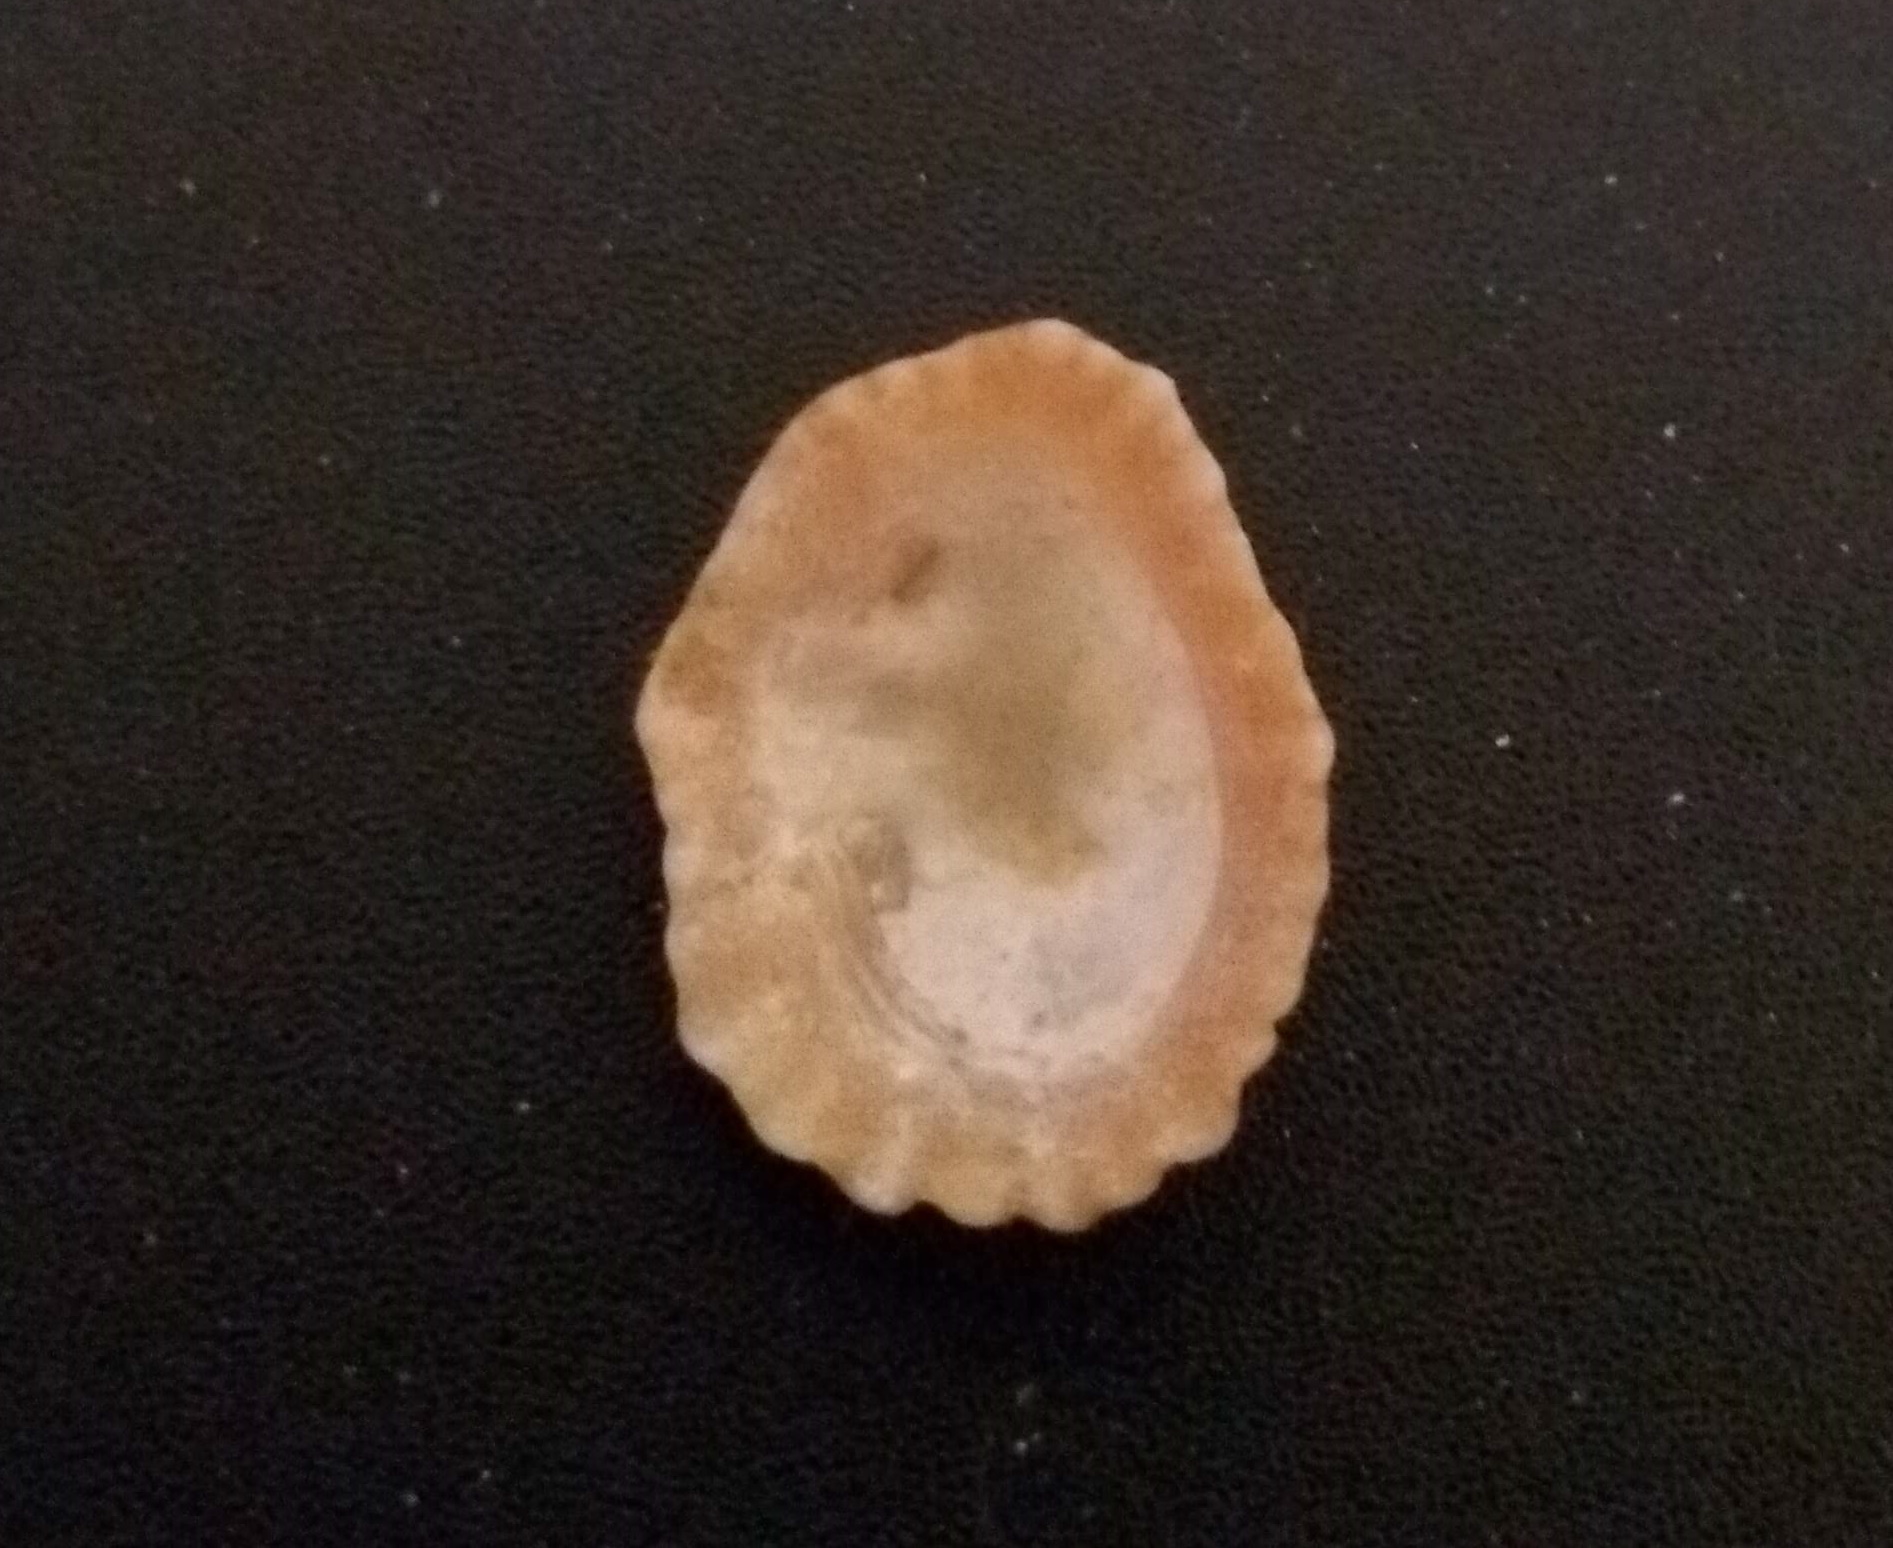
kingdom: Animalia
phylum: Mollusca
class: Gastropoda
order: Siphonariida
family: Siphonariidae
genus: Siphonaria
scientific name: Siphonaria hispida
